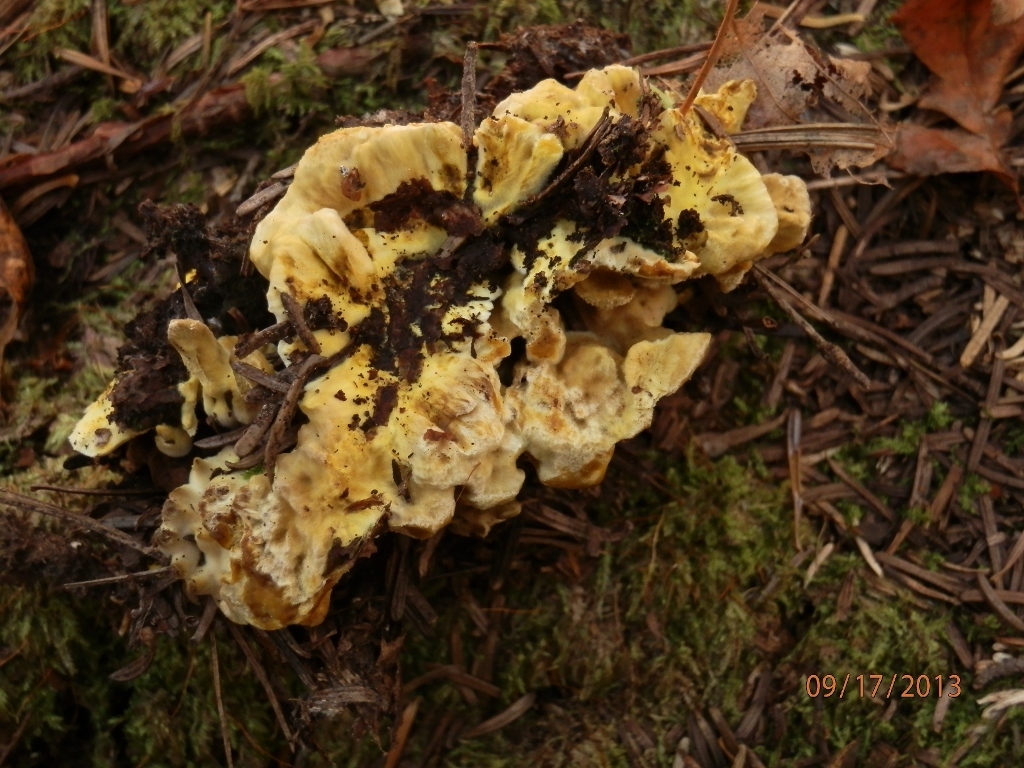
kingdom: Fungi
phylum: Basidiomycota
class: Agaricomycetes
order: Thelephorales
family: Bankeraceae
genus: Hydnellum
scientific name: Hydnellum geogenium
